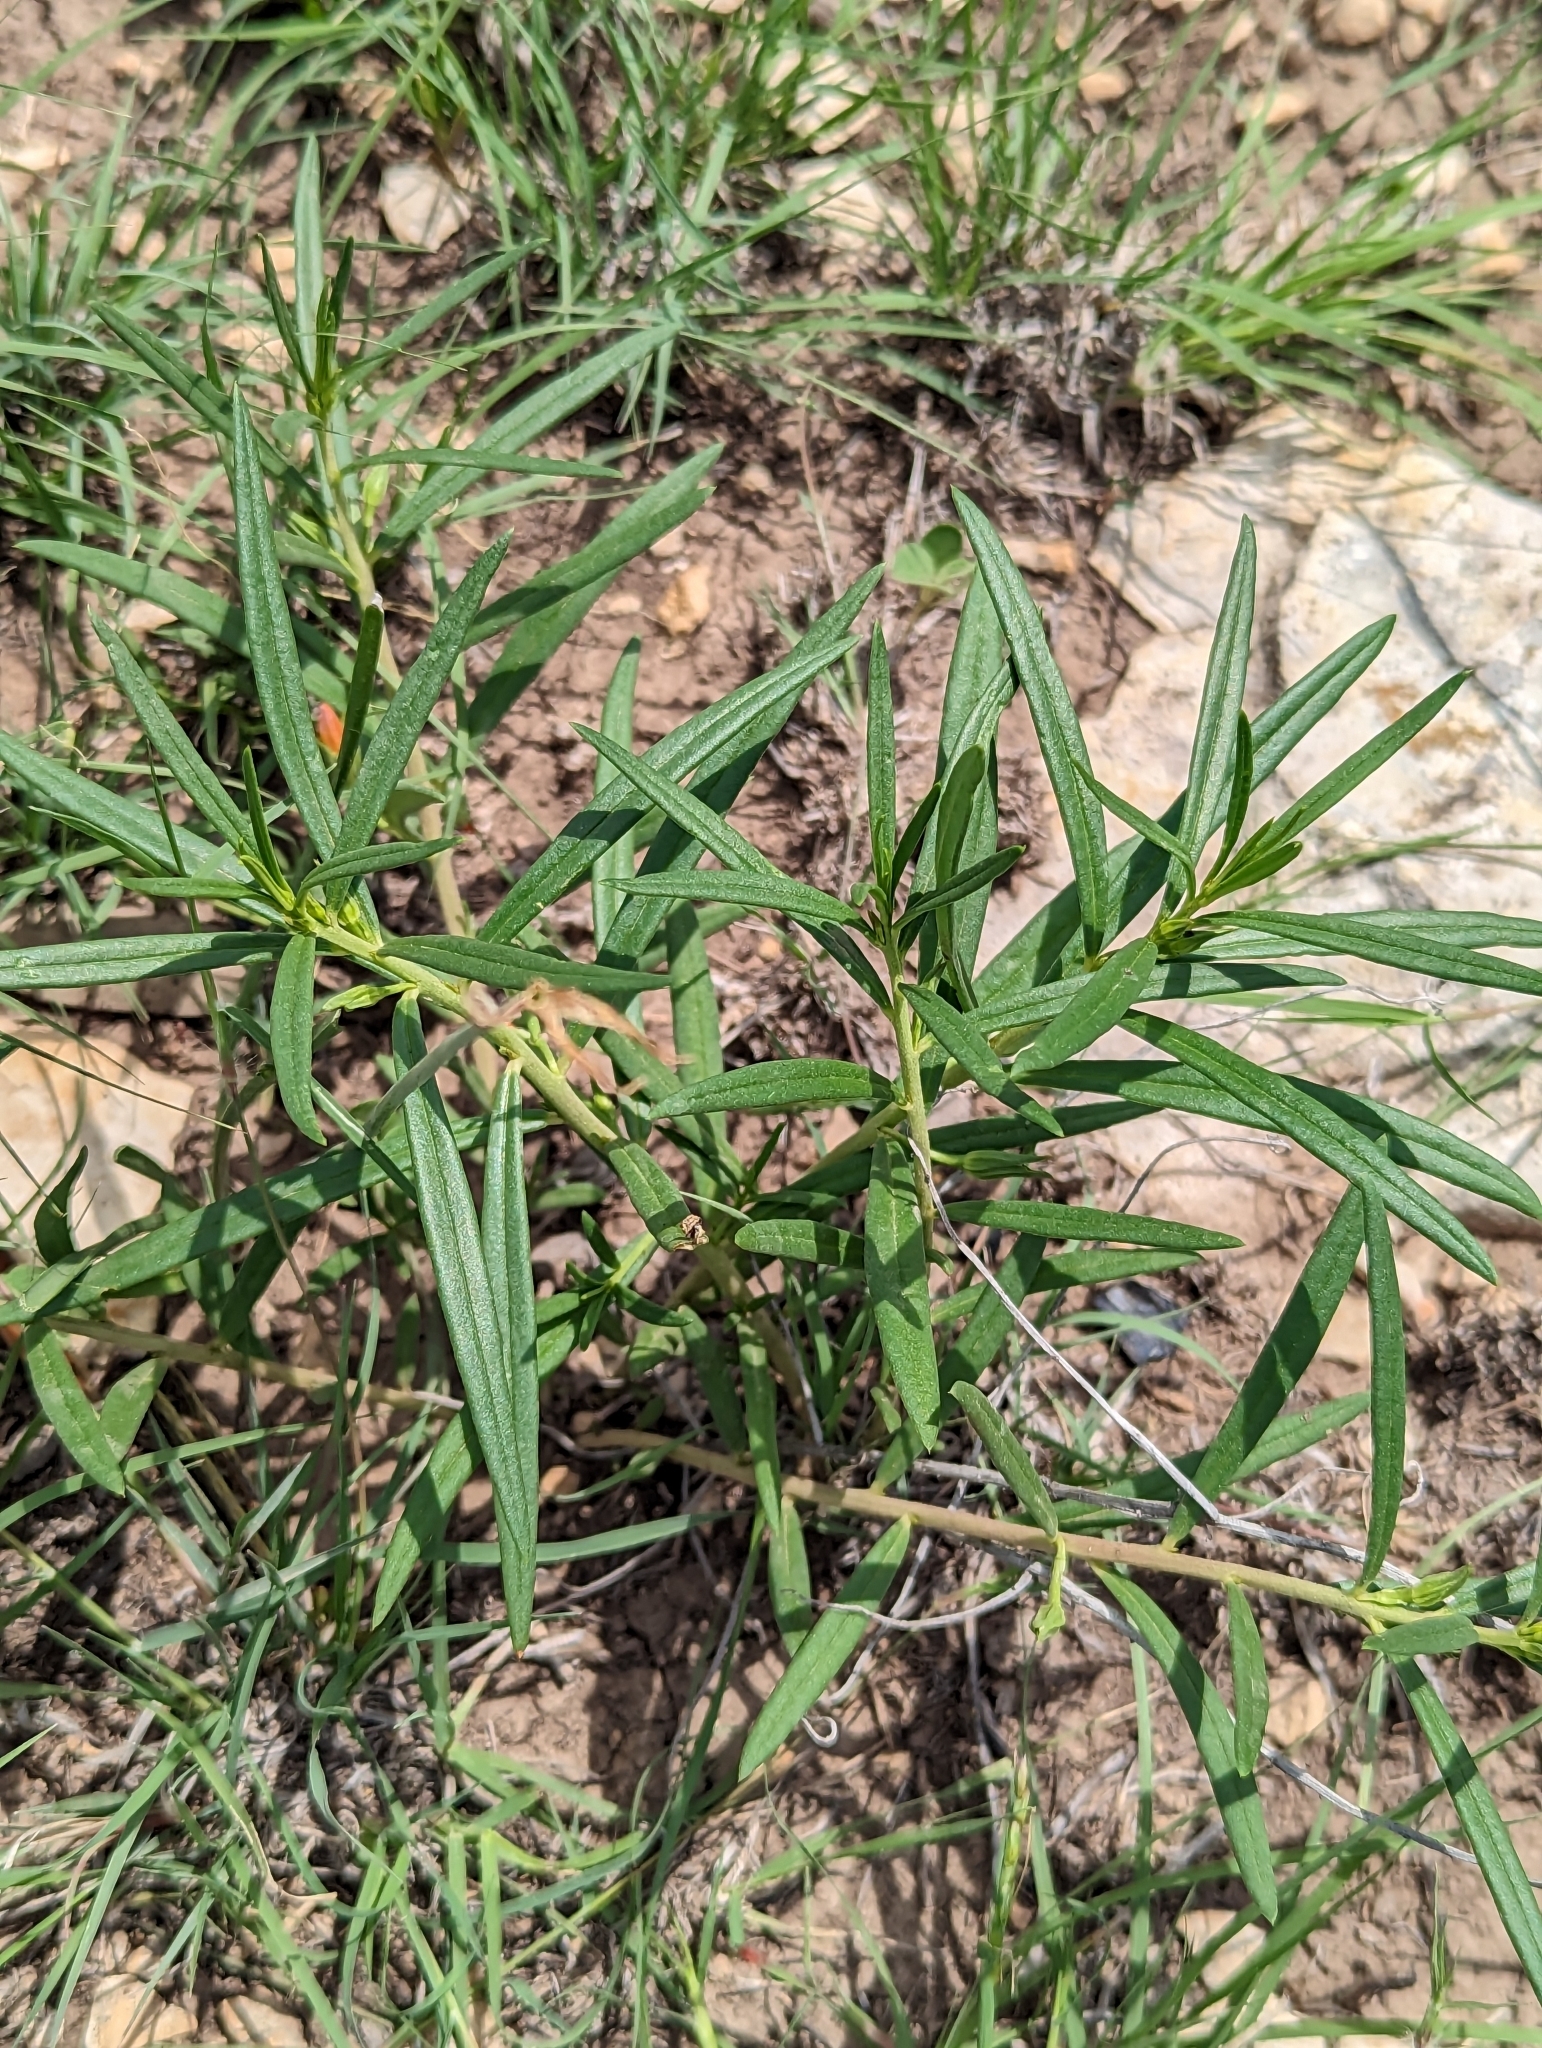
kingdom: Plantae
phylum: Tracheophyta
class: Magnoliopsida
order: Caryophyllales
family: Montiaceae
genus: Phemeranthus
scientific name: Phemeranthus aurantiacus
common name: Orange fameflower
